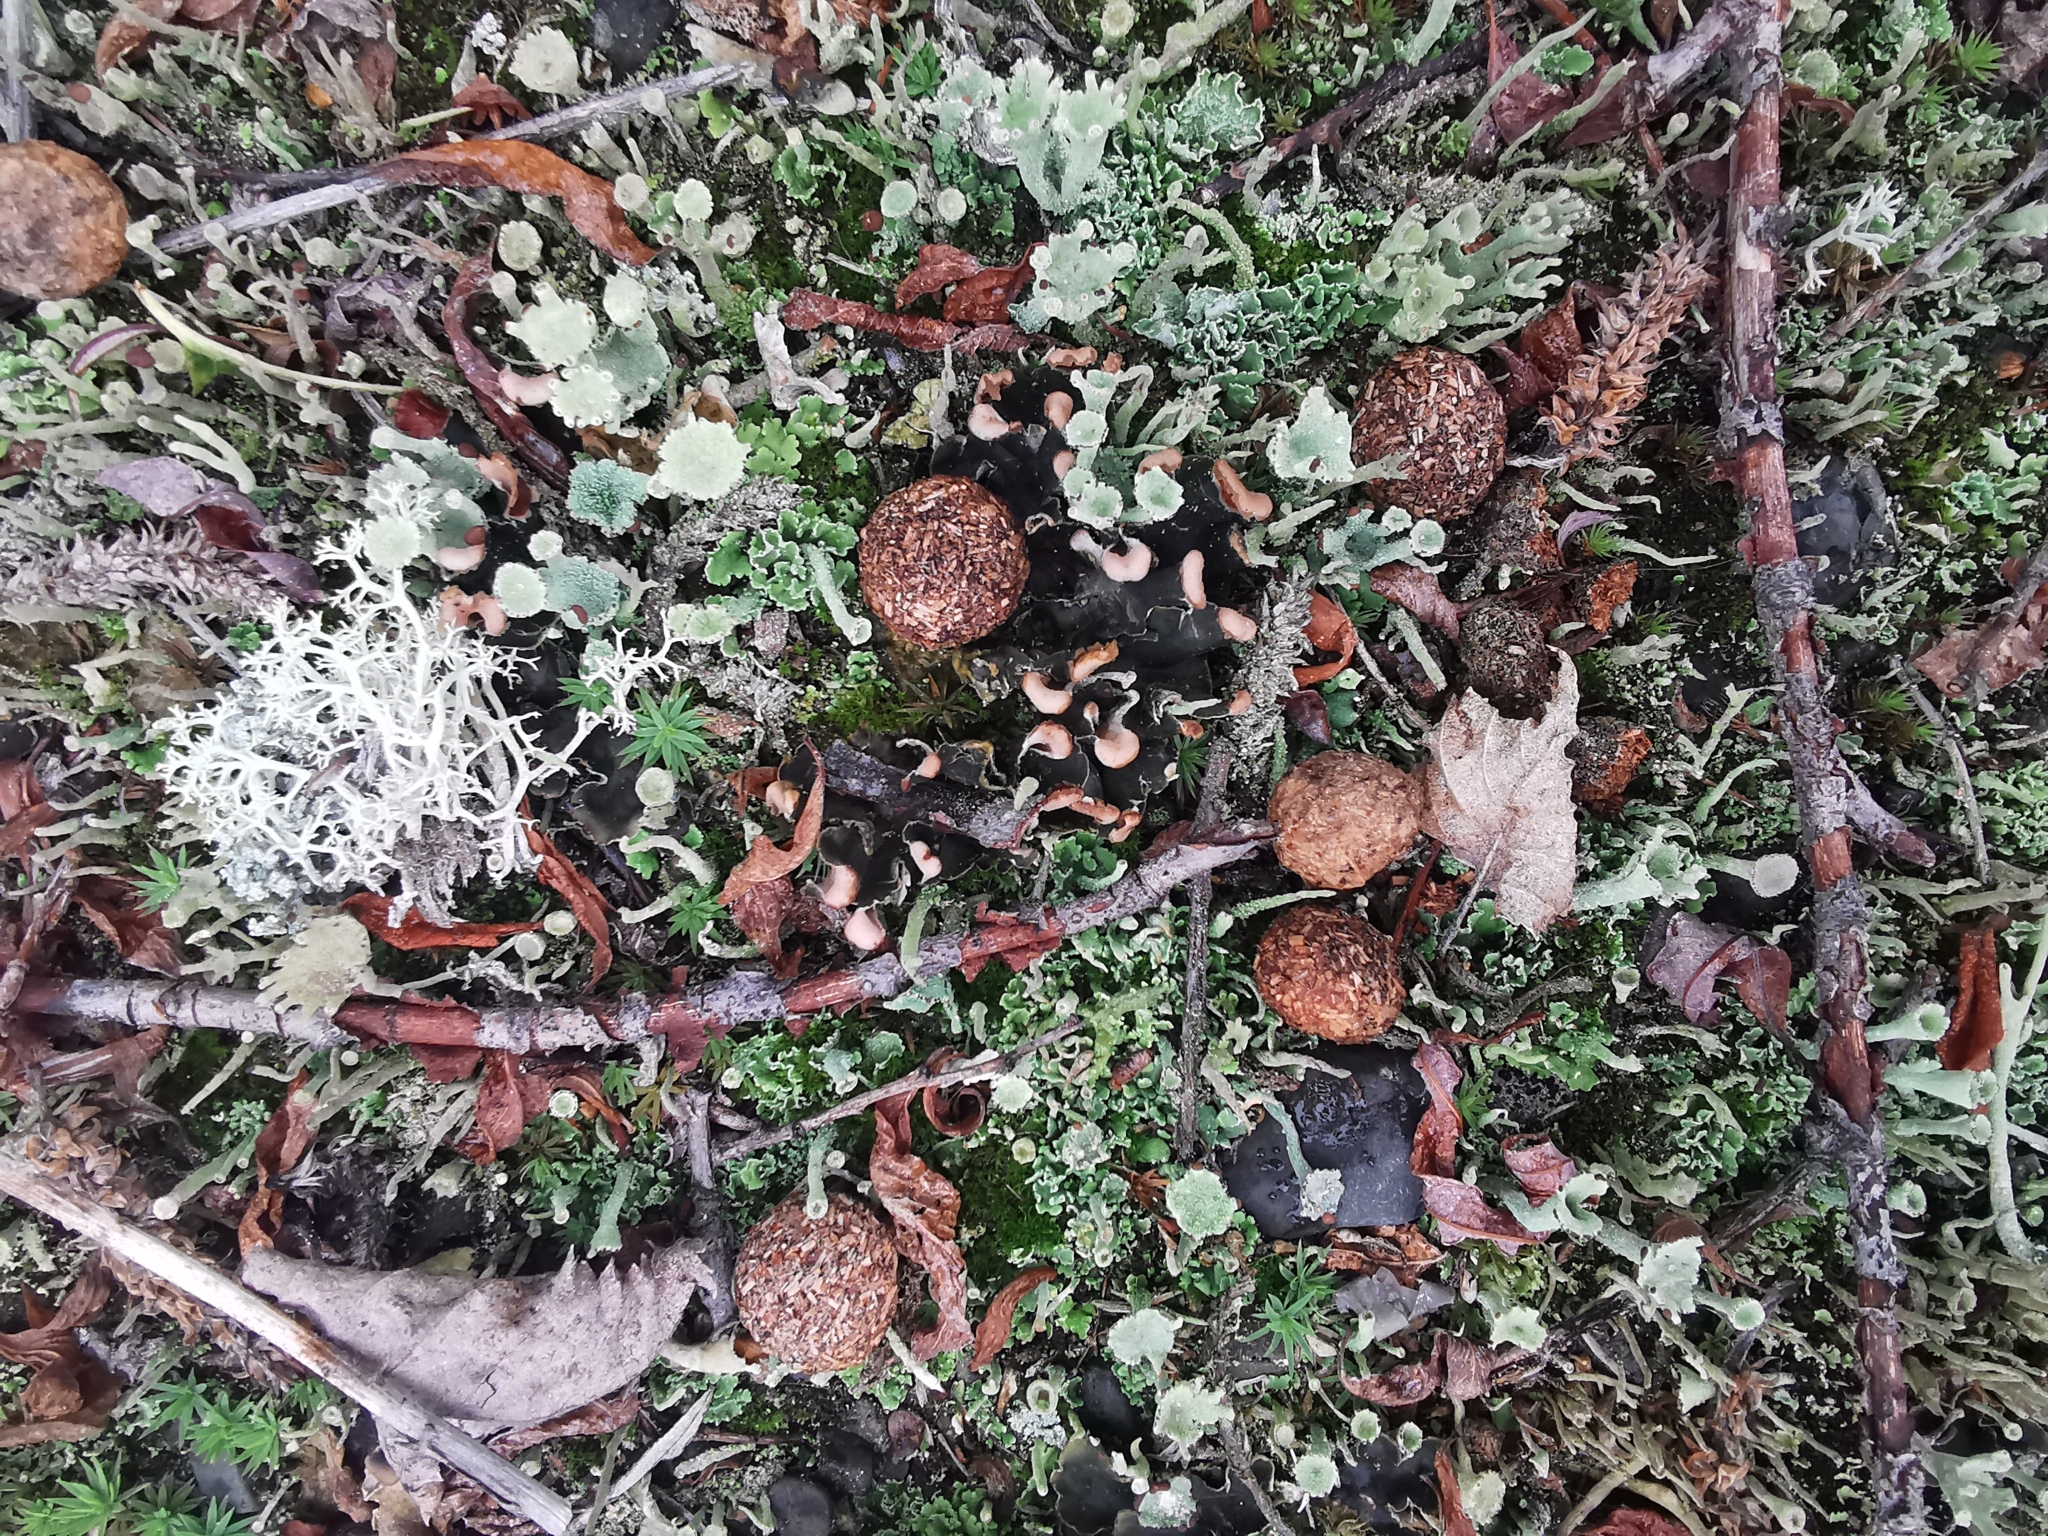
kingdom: Animalia
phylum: Chordata
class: Mammalia
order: Lagomorpha
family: Leporidae
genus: Lepus
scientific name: Lepus timidus
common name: Mountain hare
